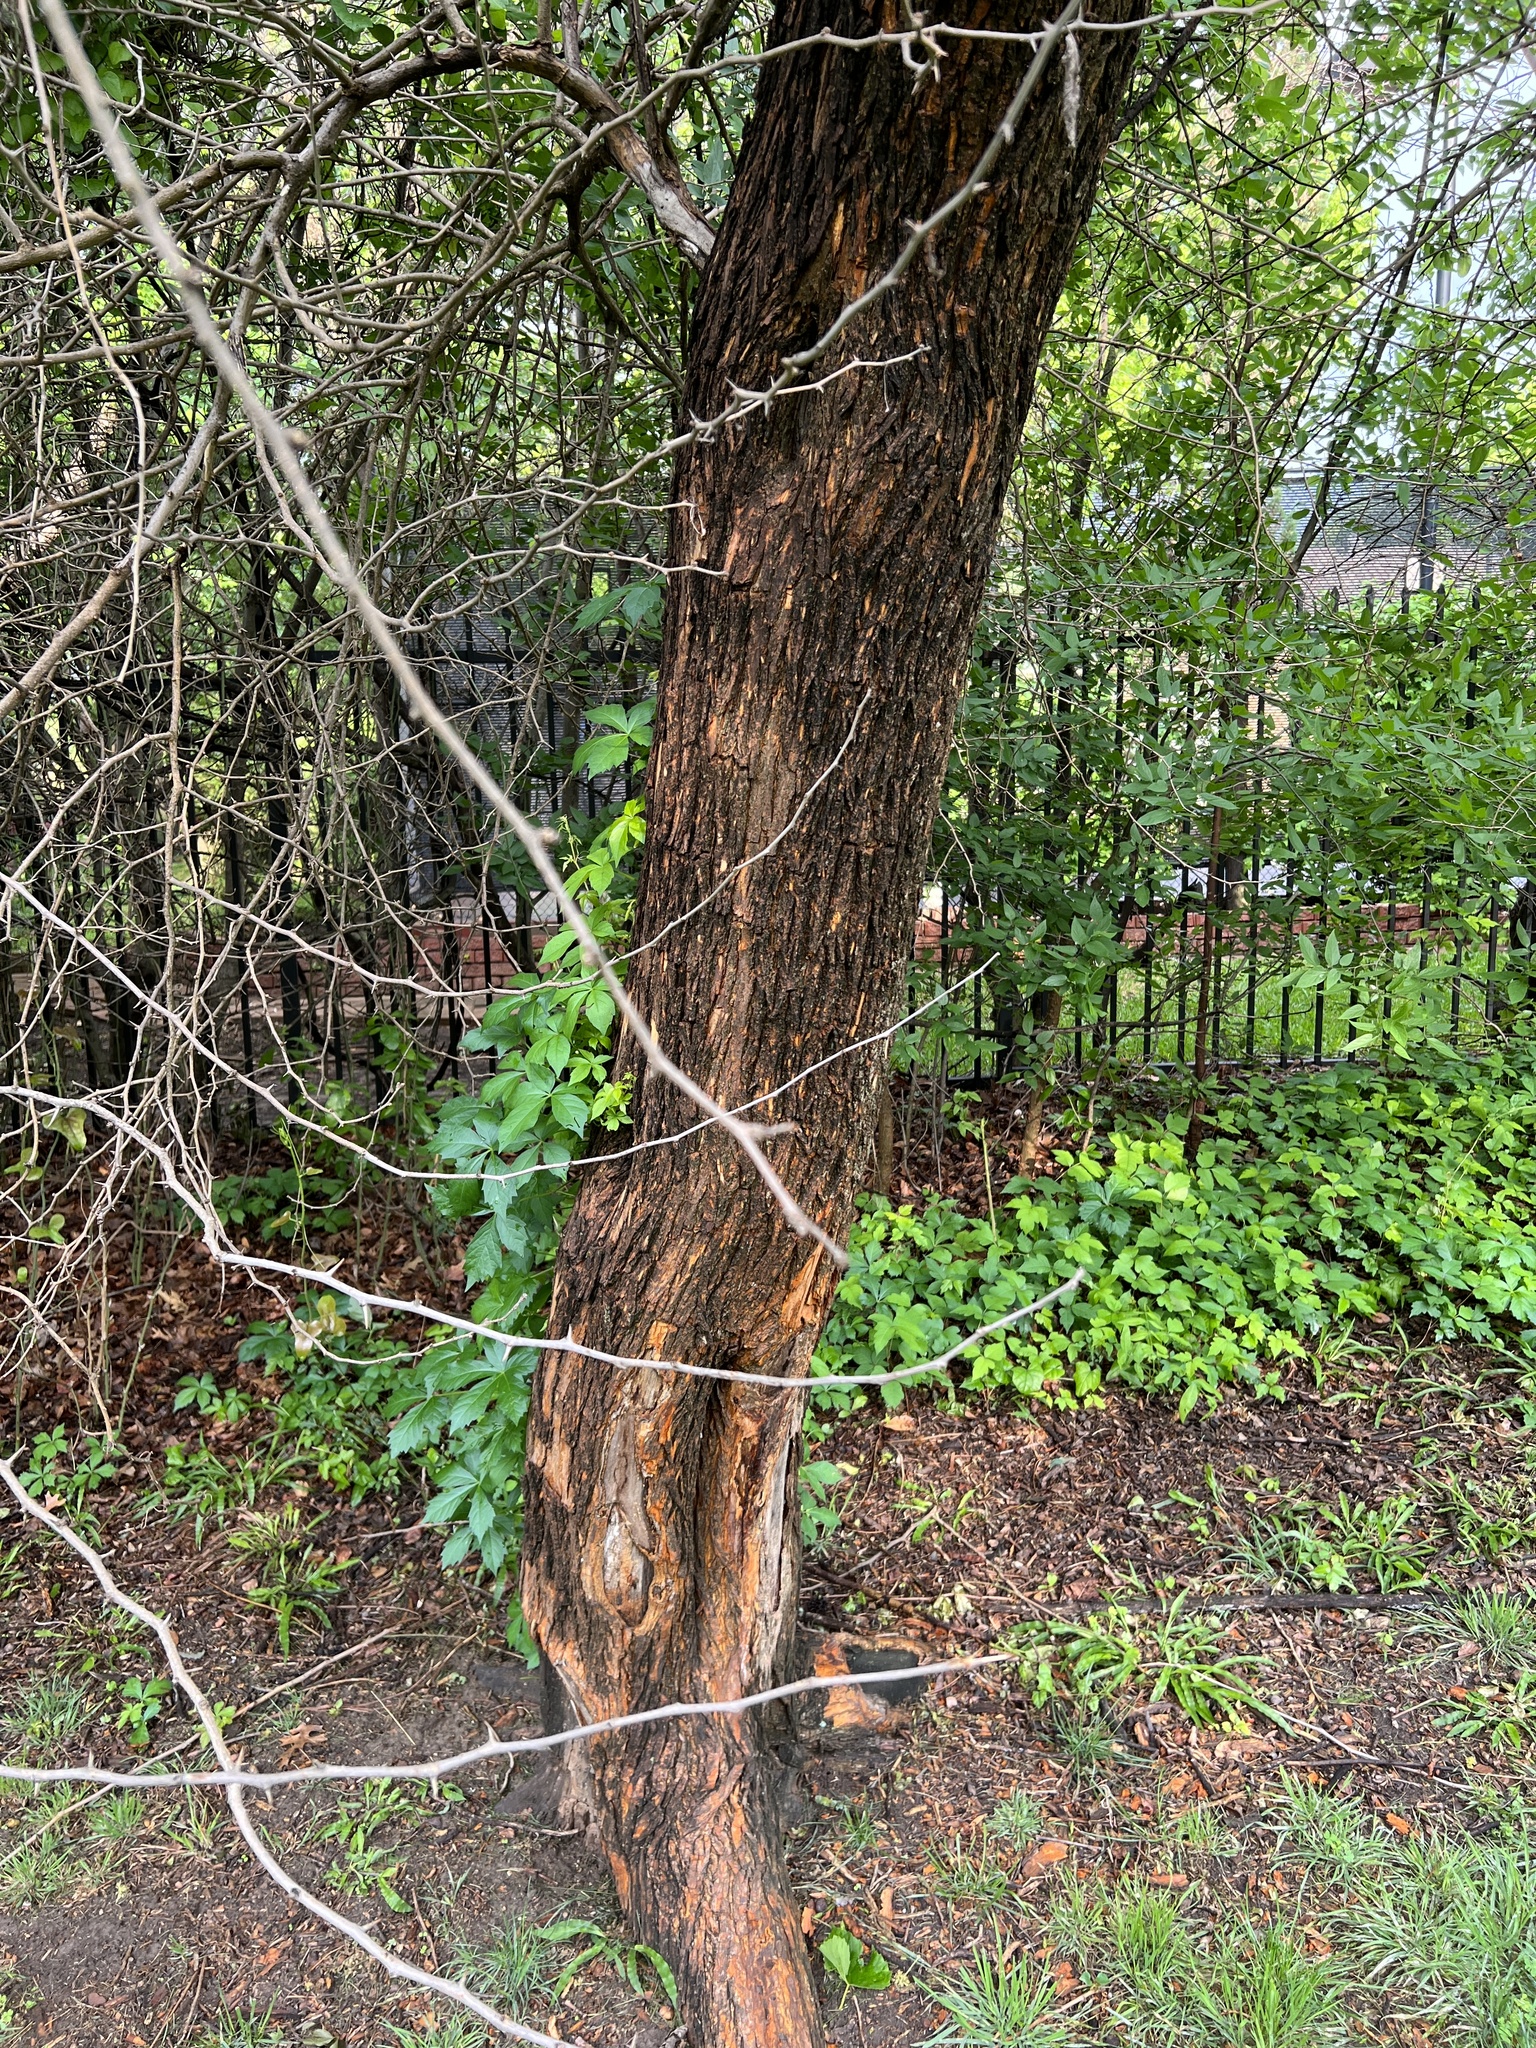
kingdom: Plantae
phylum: Tracheophyta
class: Magnoliopsida
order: Rosales
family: Moraceae
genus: Maclura
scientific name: Maclura pomifera
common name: Osage-orange
